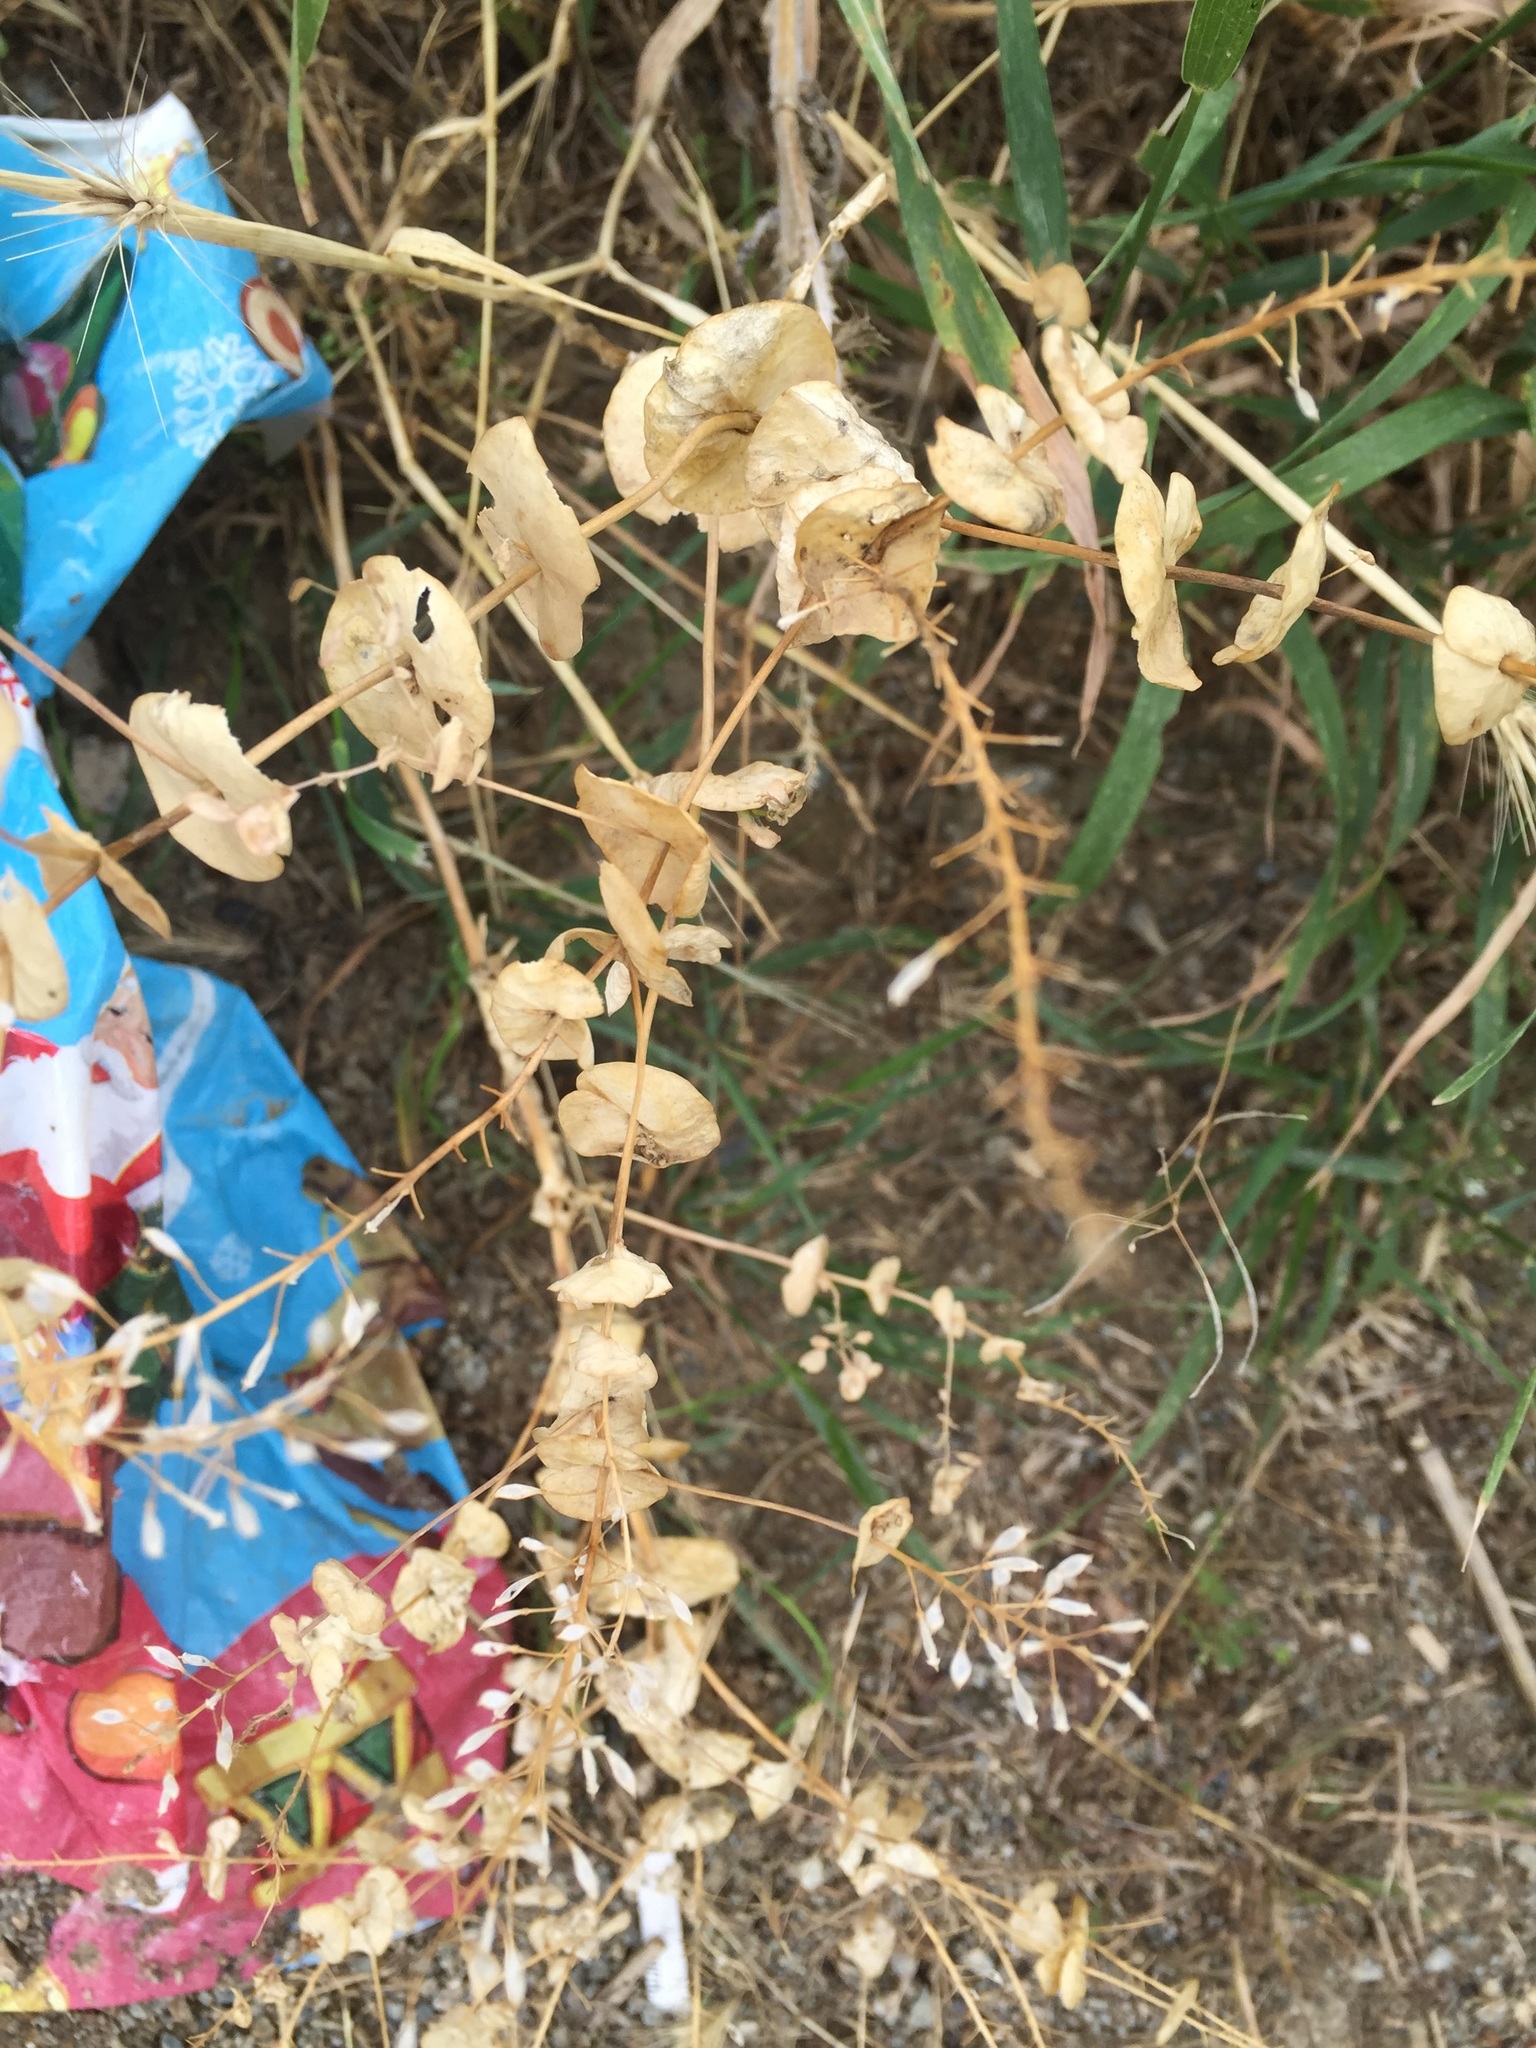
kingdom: Plantae
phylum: Tracheophyta
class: Magnoliopsida
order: Brassicales
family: Brassicaceae
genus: Lepidium
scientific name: Lepidium perfoliatum
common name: Perfoliate pepperwort
